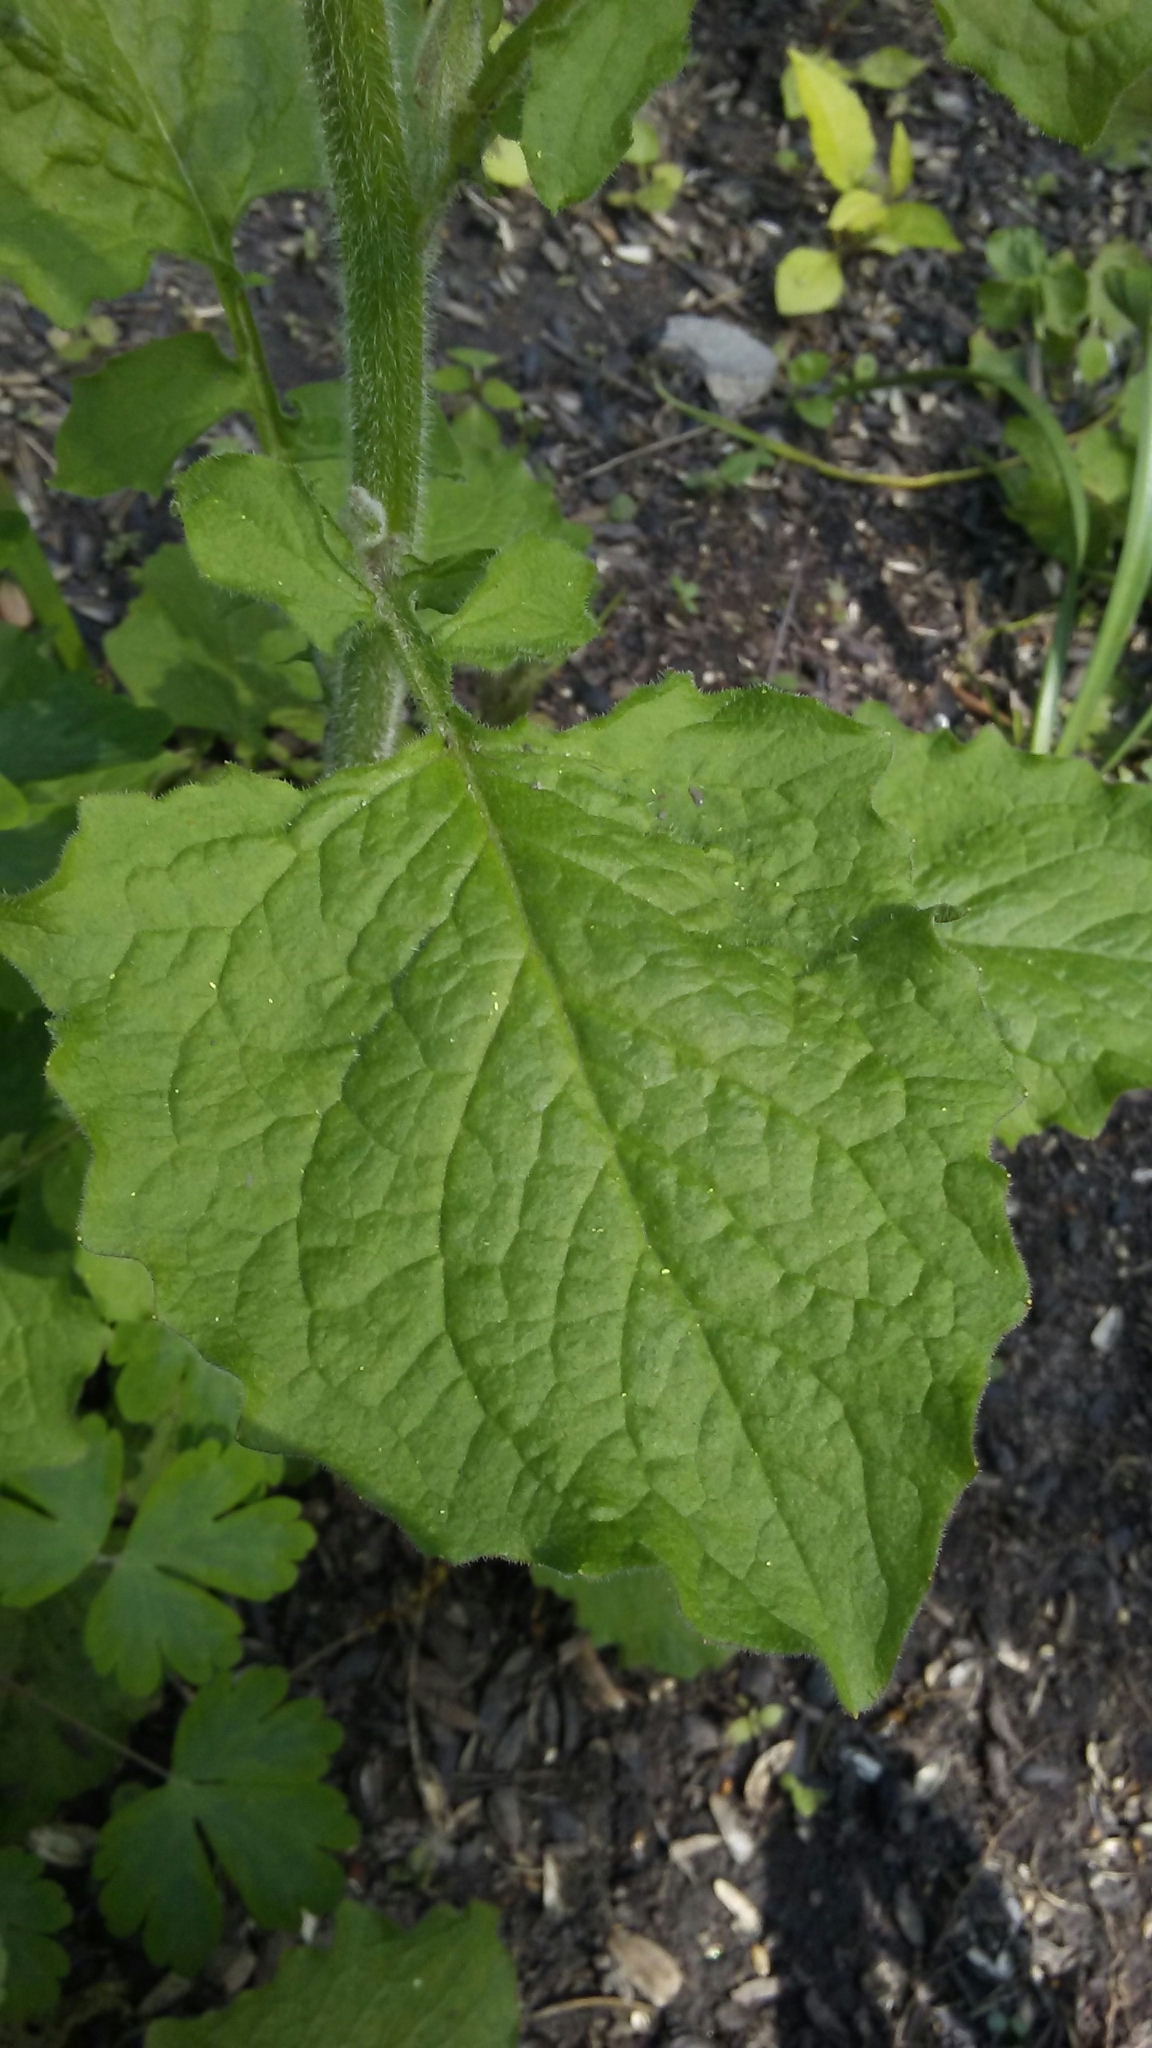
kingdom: Plantae
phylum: Tracheophyta
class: Magnoliopsida
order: Asterales
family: Asteraceae
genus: Lapsana
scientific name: Lapsana communis
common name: Nipplewort
